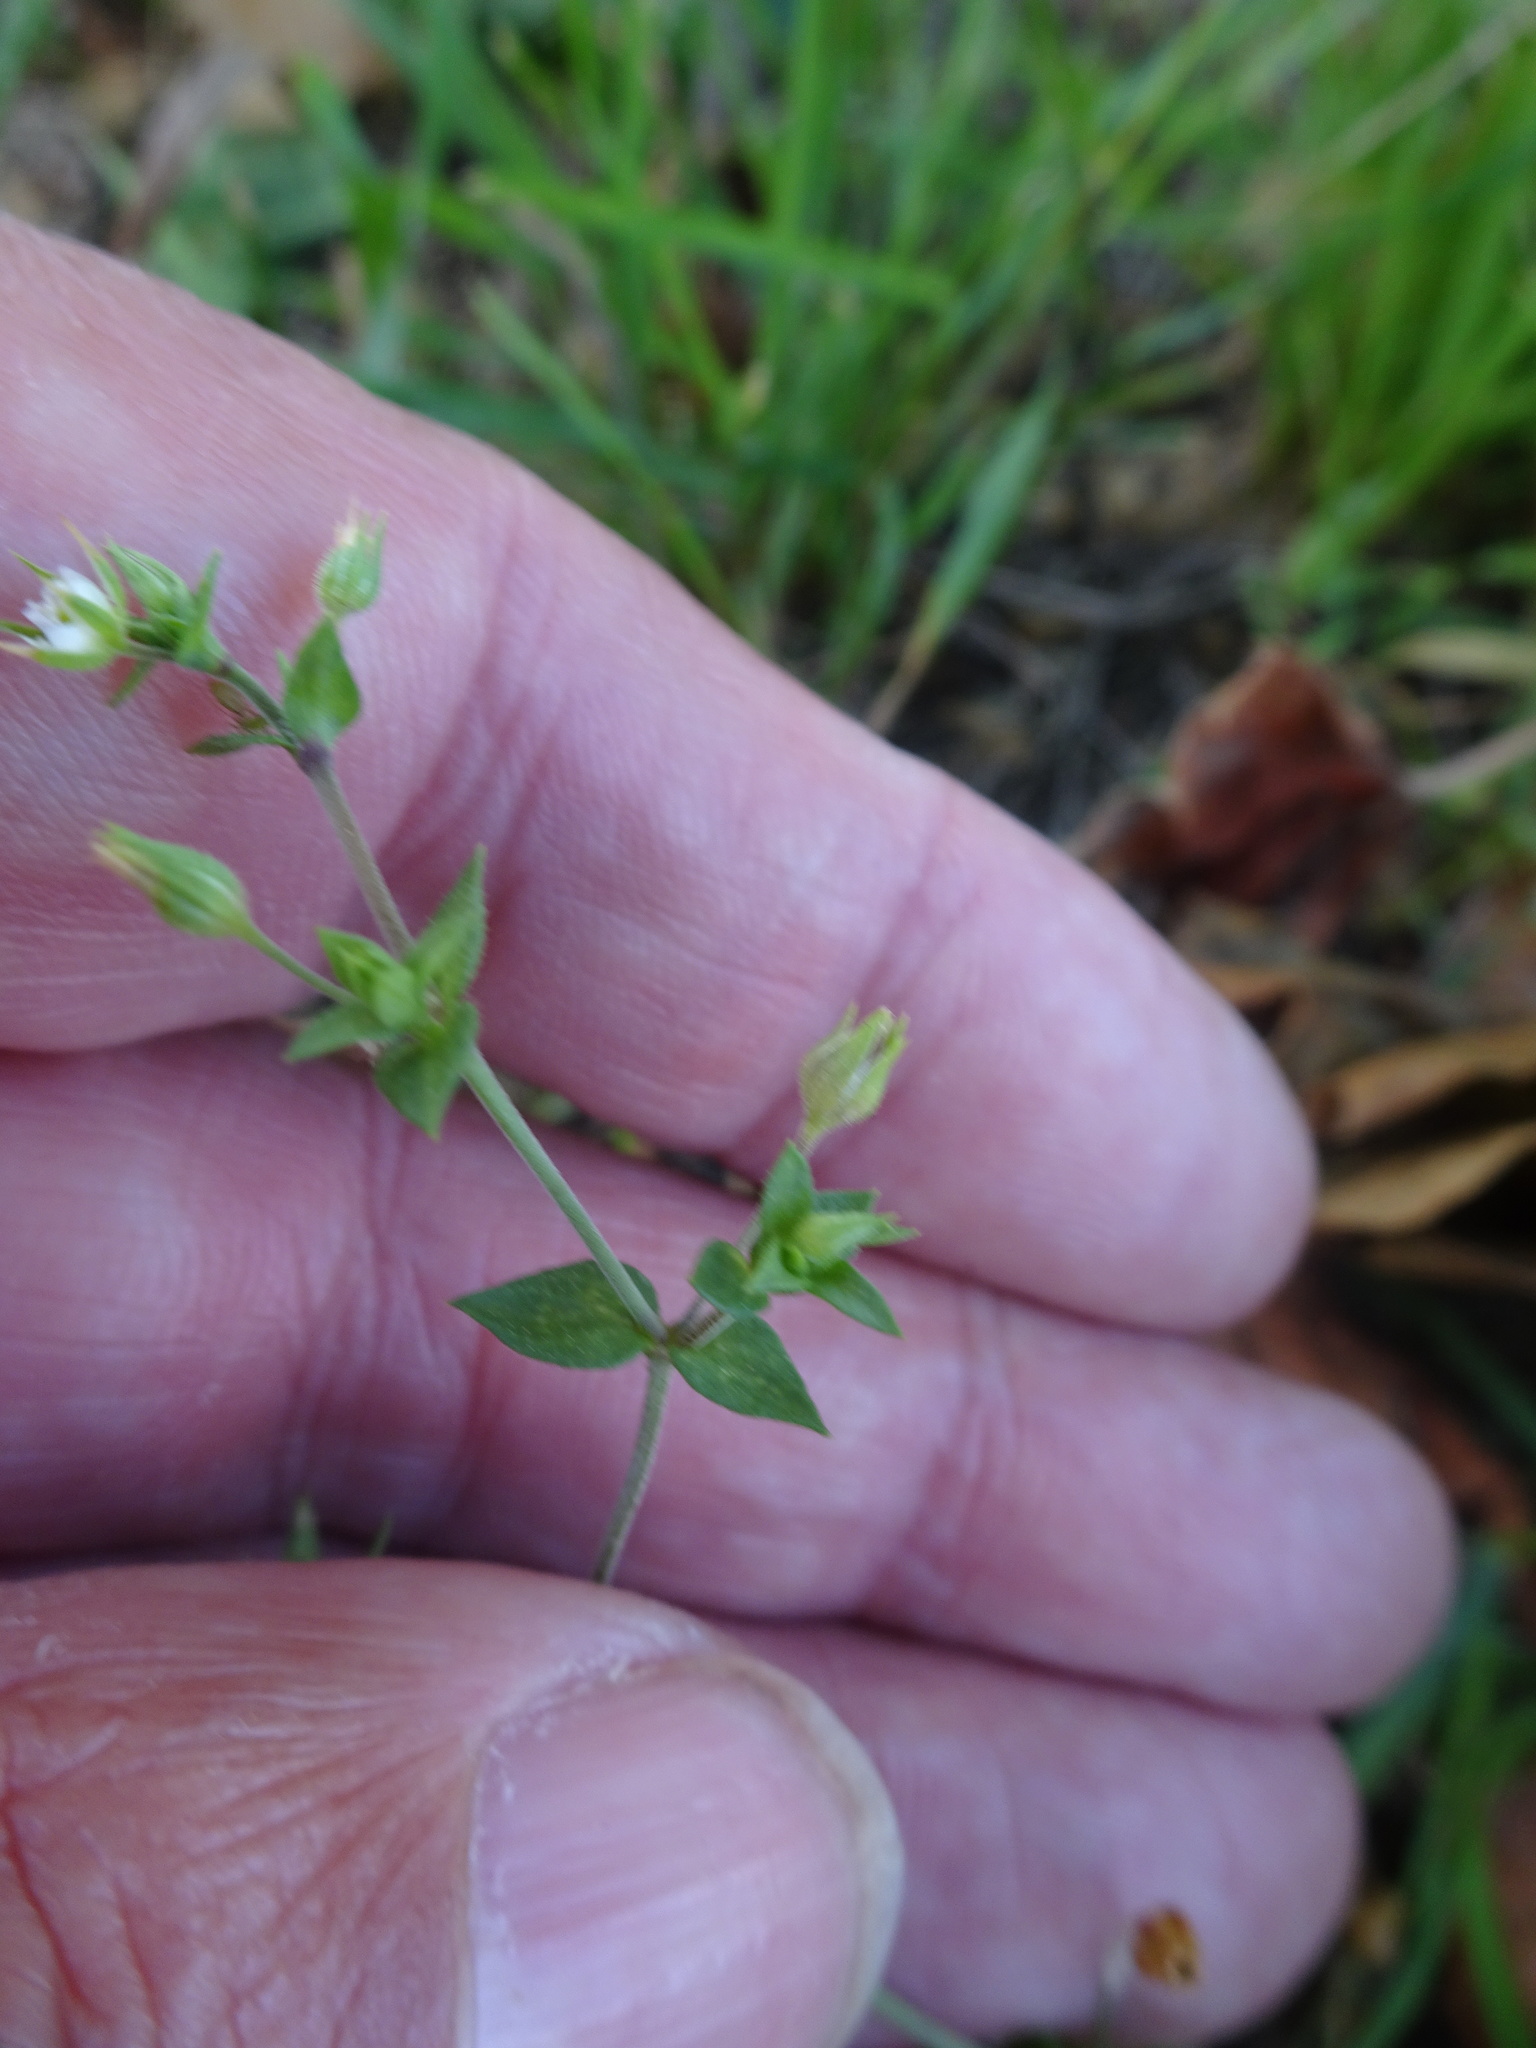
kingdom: Plantae
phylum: Tracheophyta
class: Magnoliopsida
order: Caryophyllales
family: Caryophyllaceae
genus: Arenaria
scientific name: Arenaria serpyllifolia
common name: Thyme-leaved sandwort
